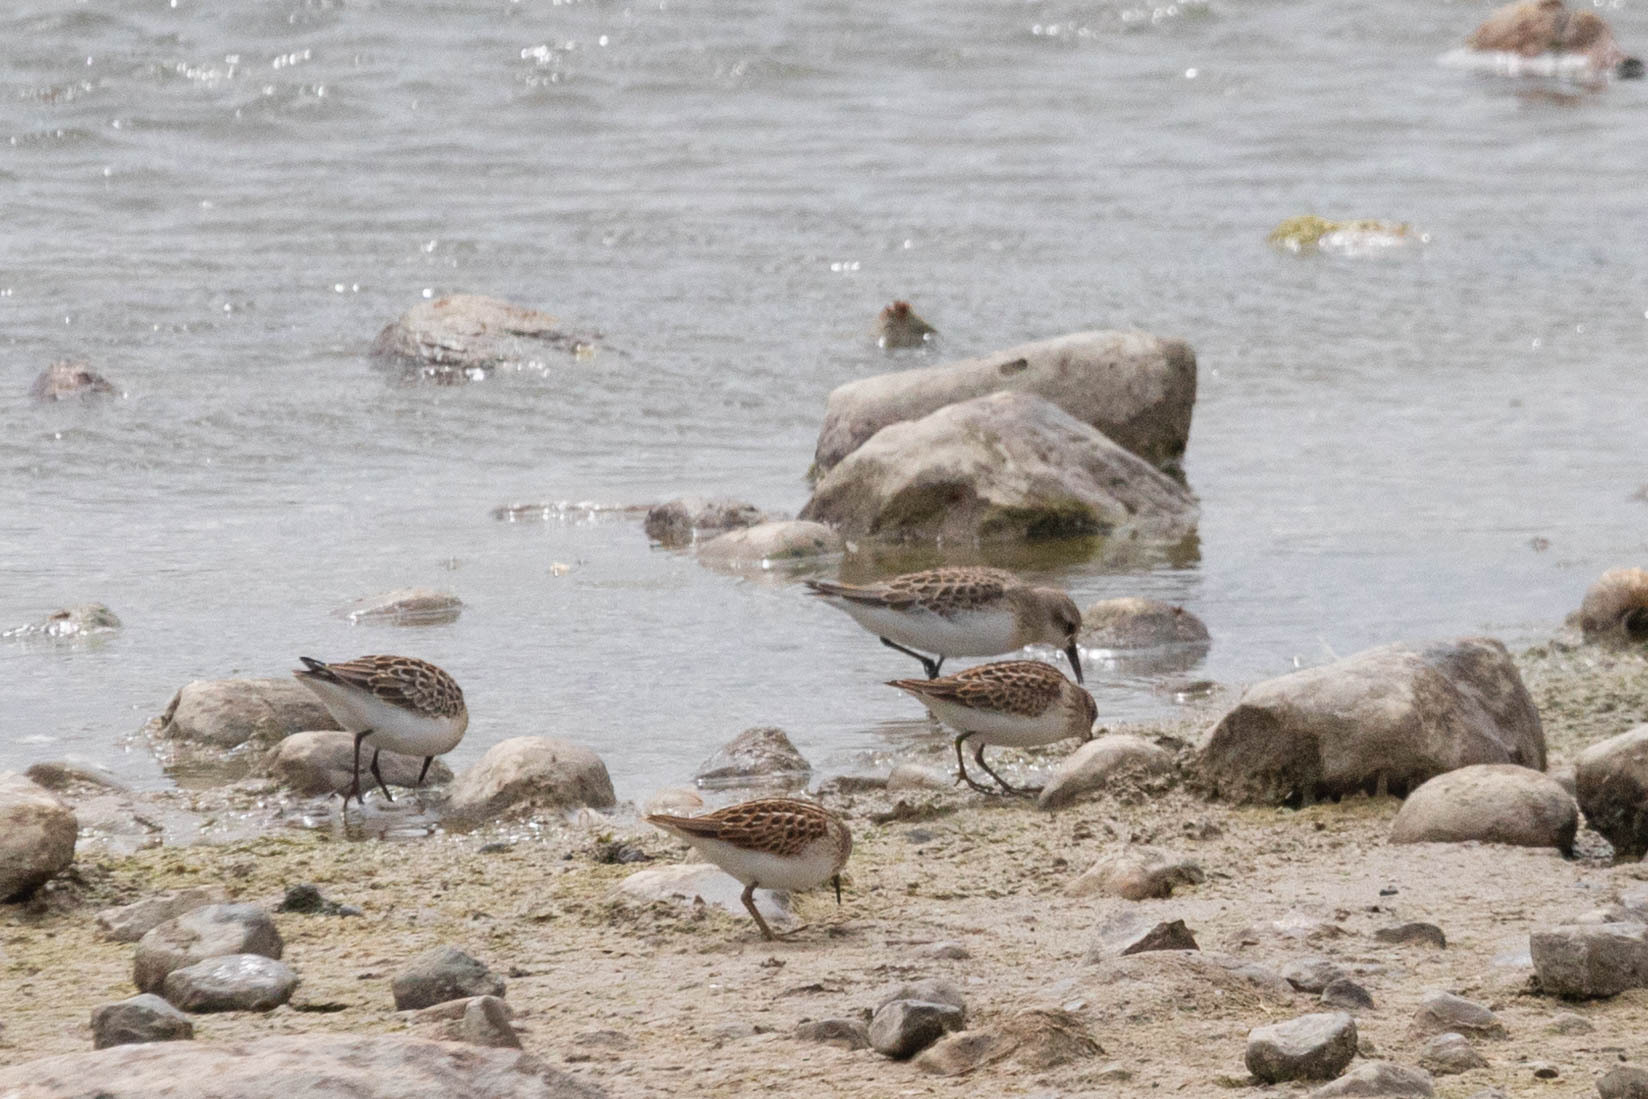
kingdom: Animalia
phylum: Chordata
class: Aves
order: Charadriiformes
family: Scolopacidae
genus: Calidris
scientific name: Calidris pusilla
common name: Semipalmated sandpiper
